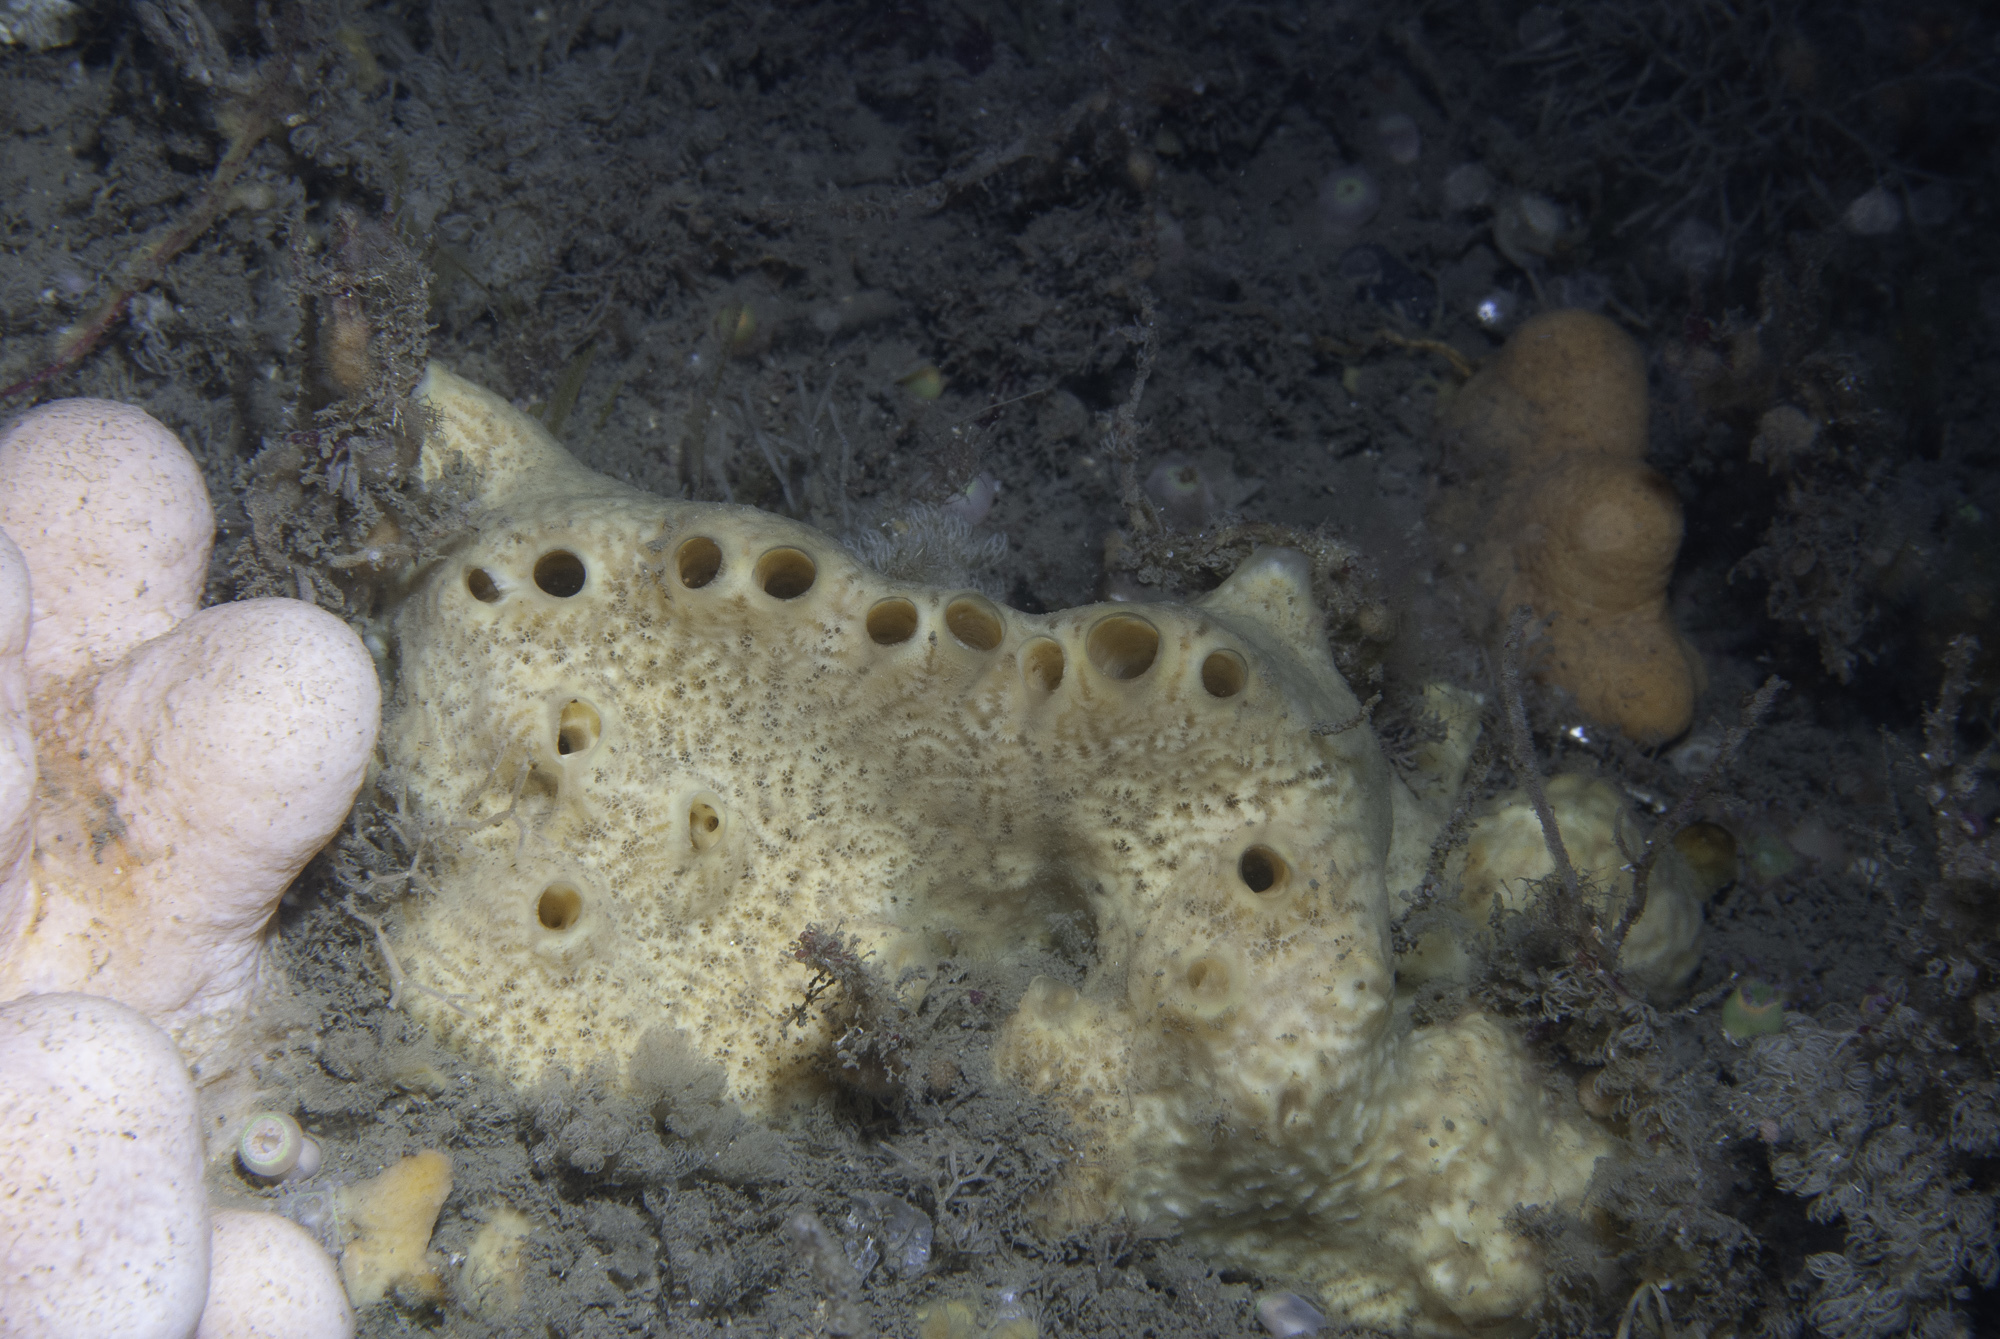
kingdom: Animalia
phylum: Porifera
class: Demospongiae
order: Poecilosclerida
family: Myxillidae
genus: Myxilla
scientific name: Myxilla incrustans
